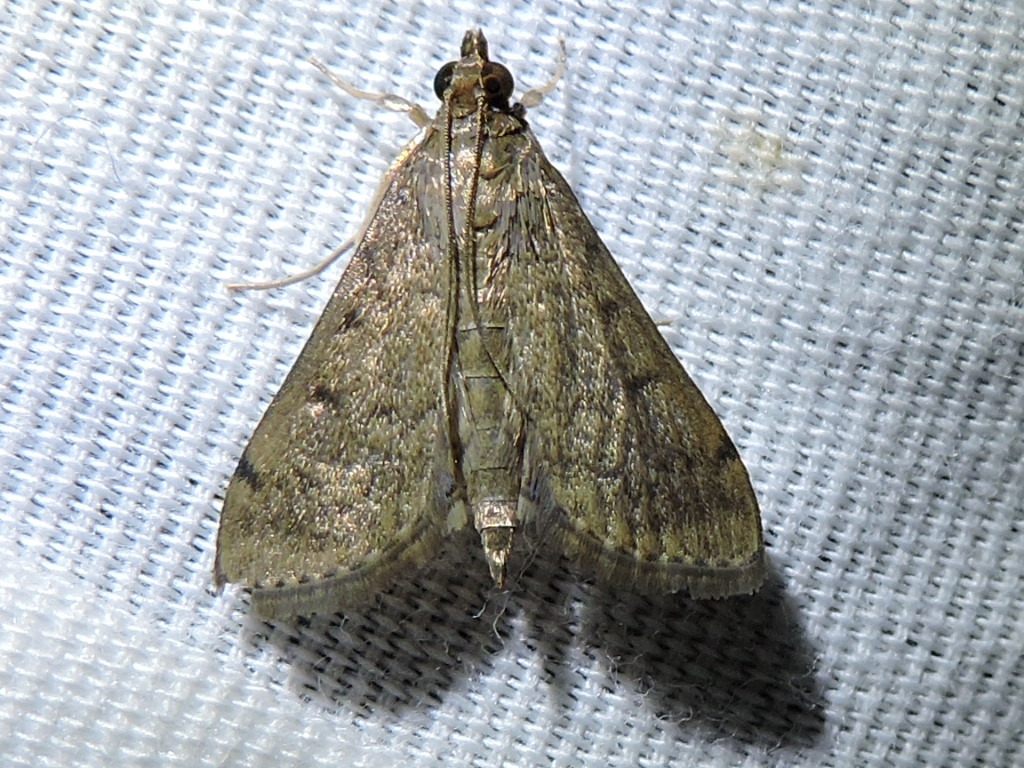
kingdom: Animalia
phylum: Arthropoda
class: Insecta
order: Lepidoptera
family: Crambidae
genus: Herpetogramma
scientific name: Herpetogramma phaeopteralis
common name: Dusky herpetogramma moth
